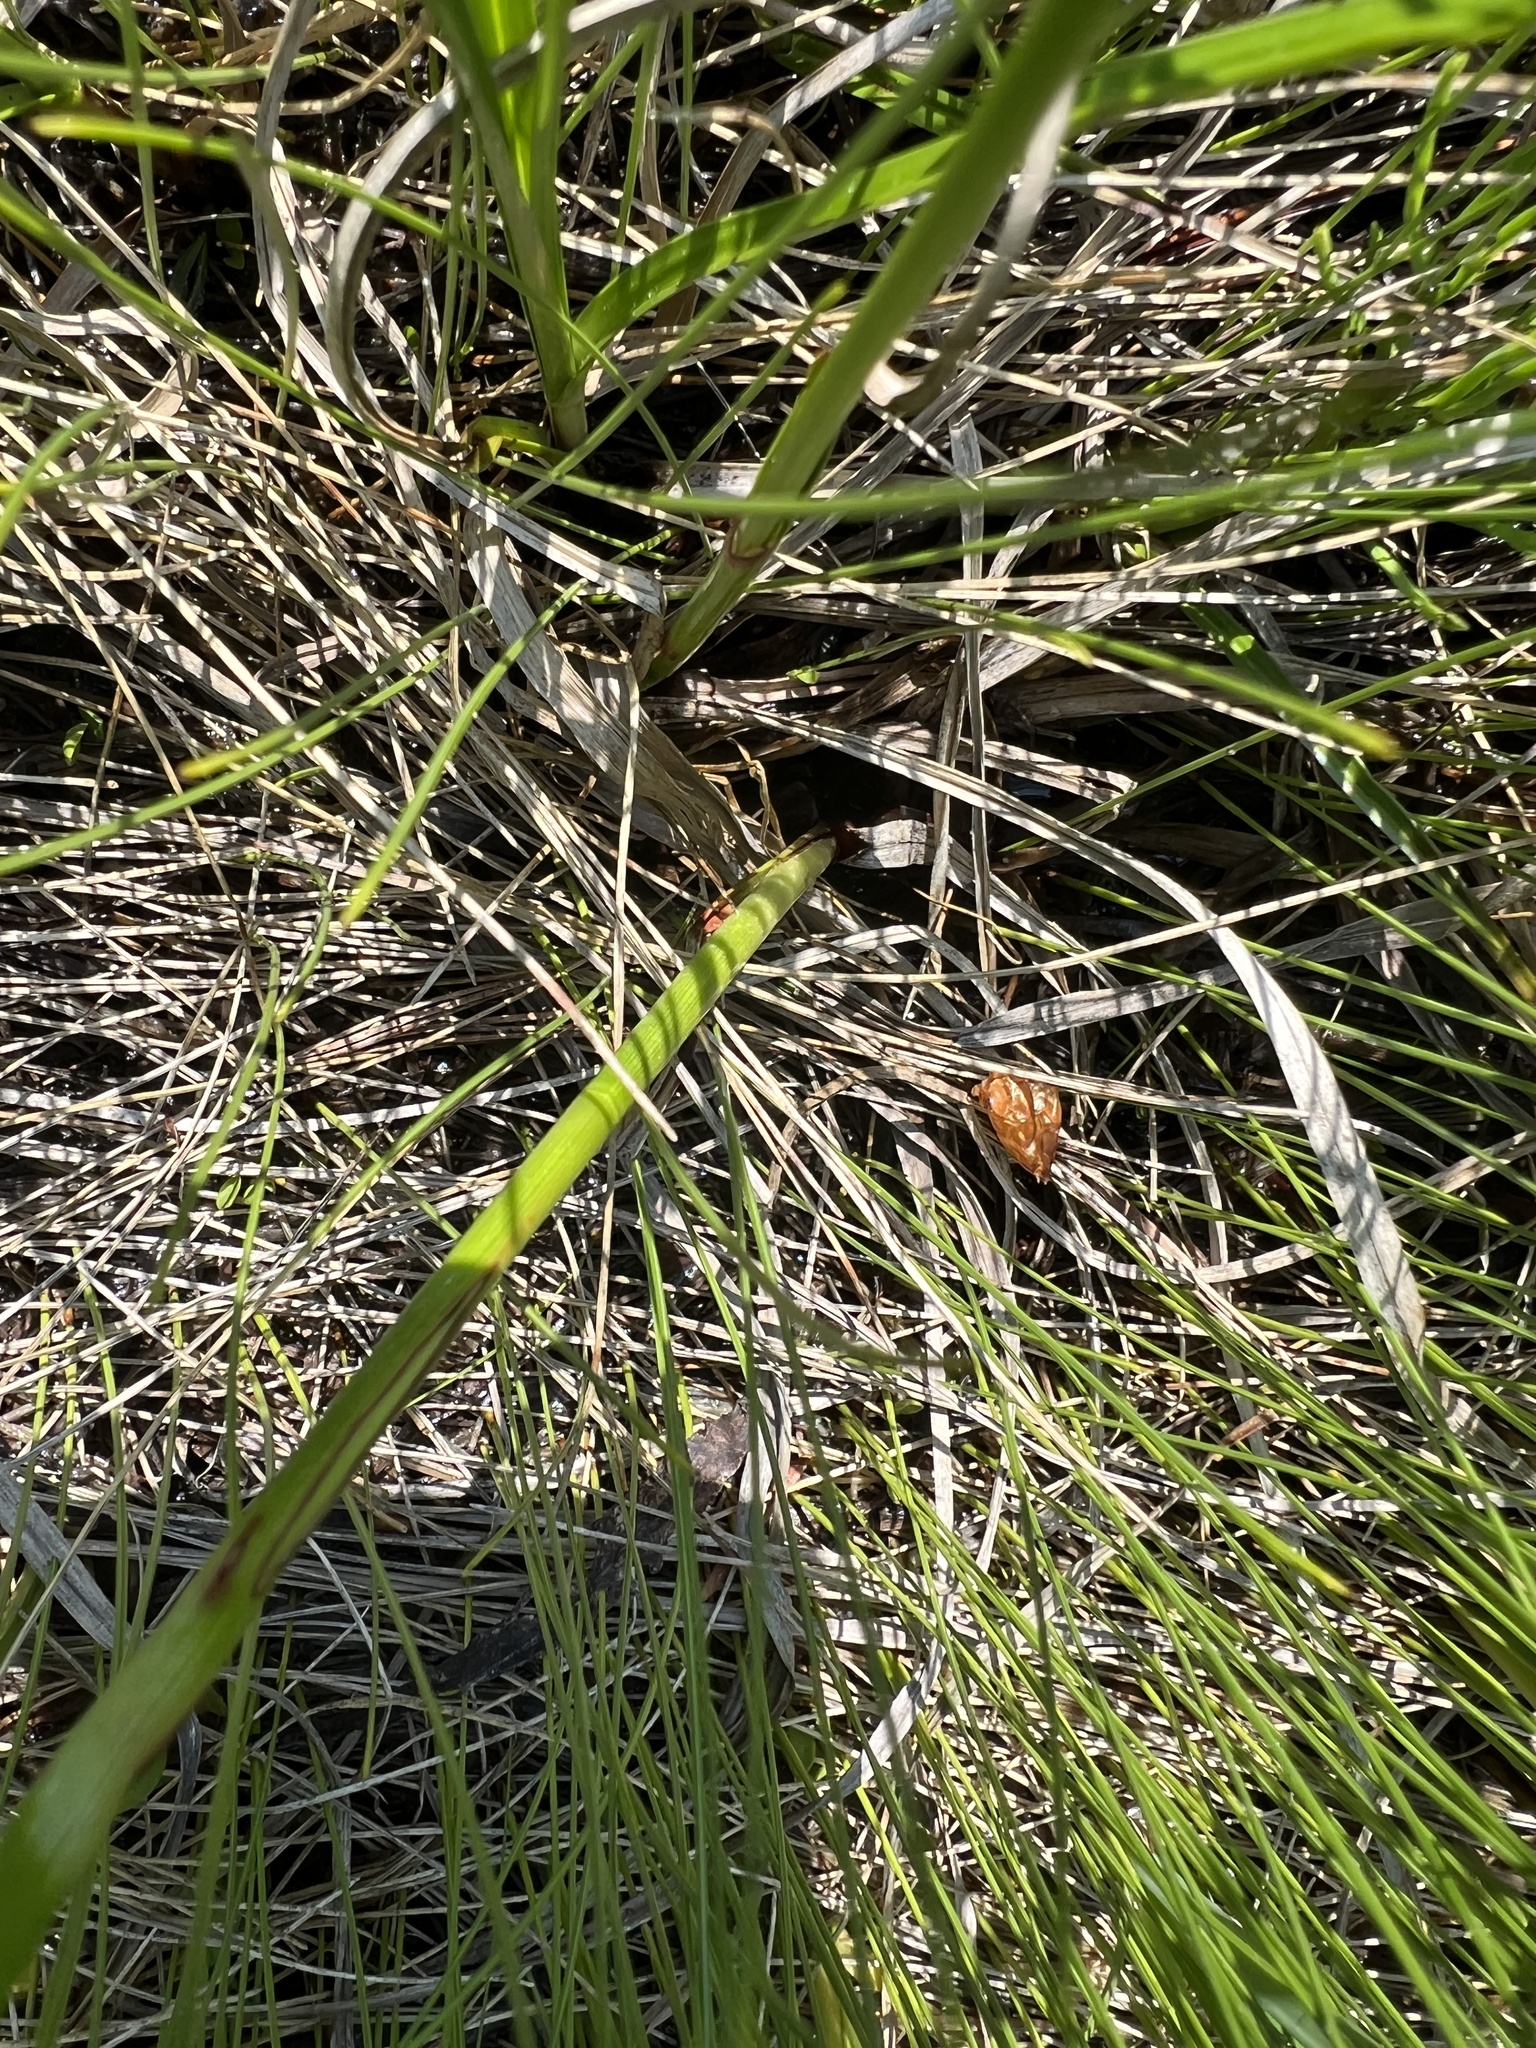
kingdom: Plantae
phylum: Tracheophyta
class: Liliopsida
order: Poales
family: Cyperaceae
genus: Eriophorum
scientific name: Eriophorum angustifolium
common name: Common cottongrass
